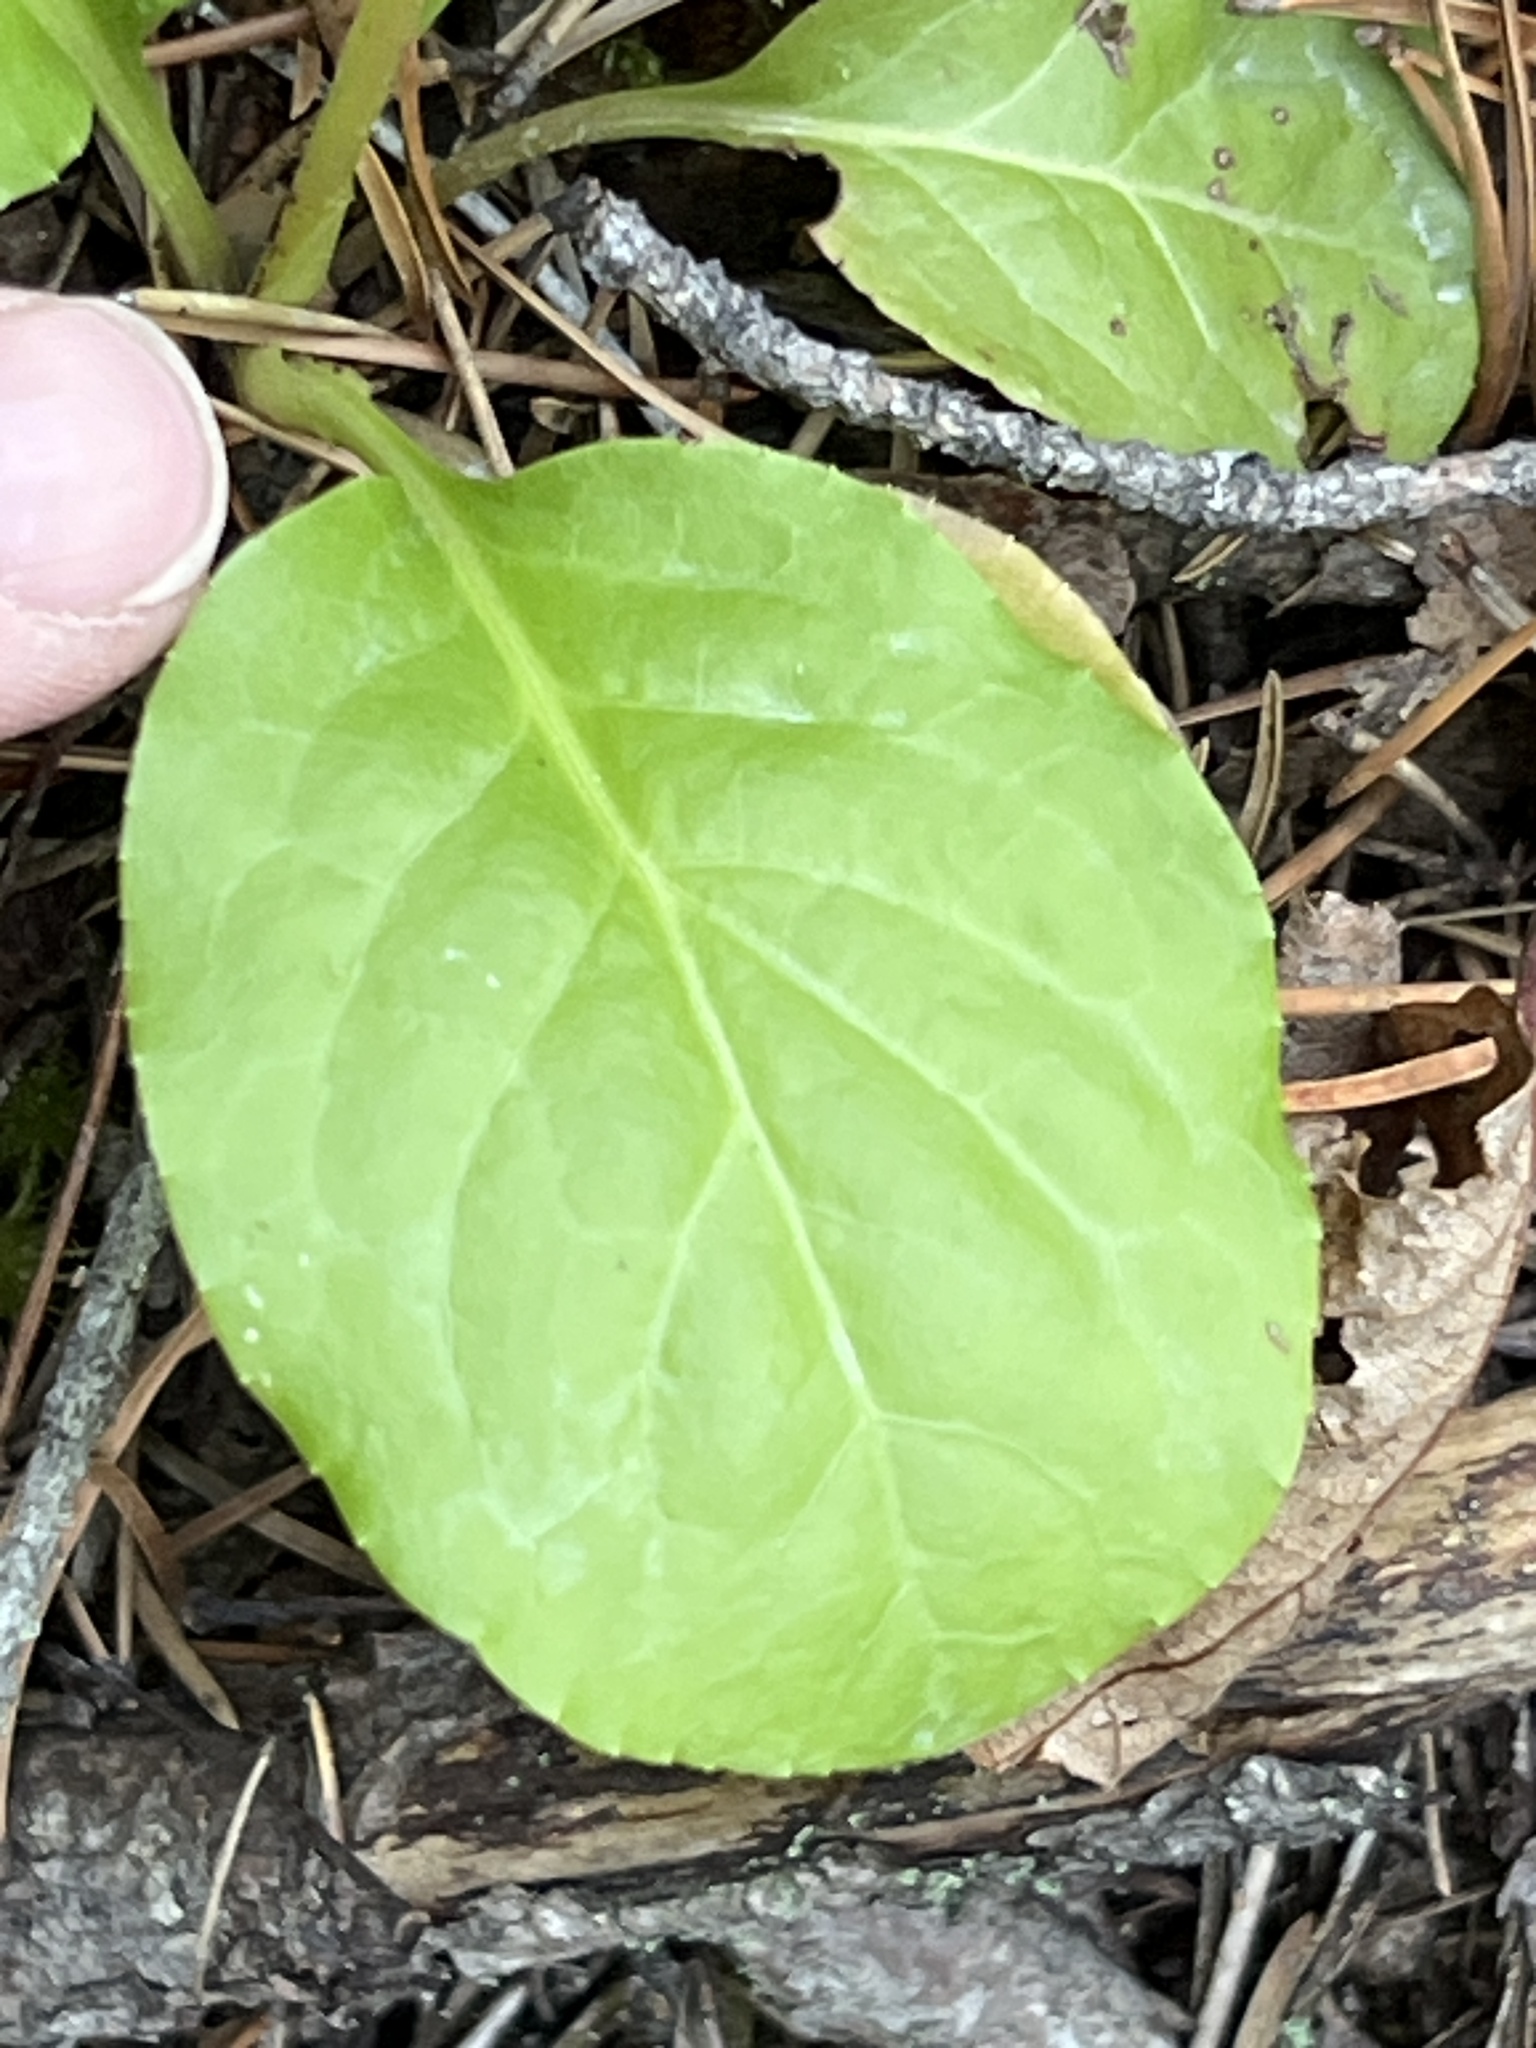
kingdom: Plantae
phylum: Tracheophyta
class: Magnoliopsida
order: Ericales
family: Ericaceae
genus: Pyrola
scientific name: Pyrola elliptica
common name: Shinleaf
